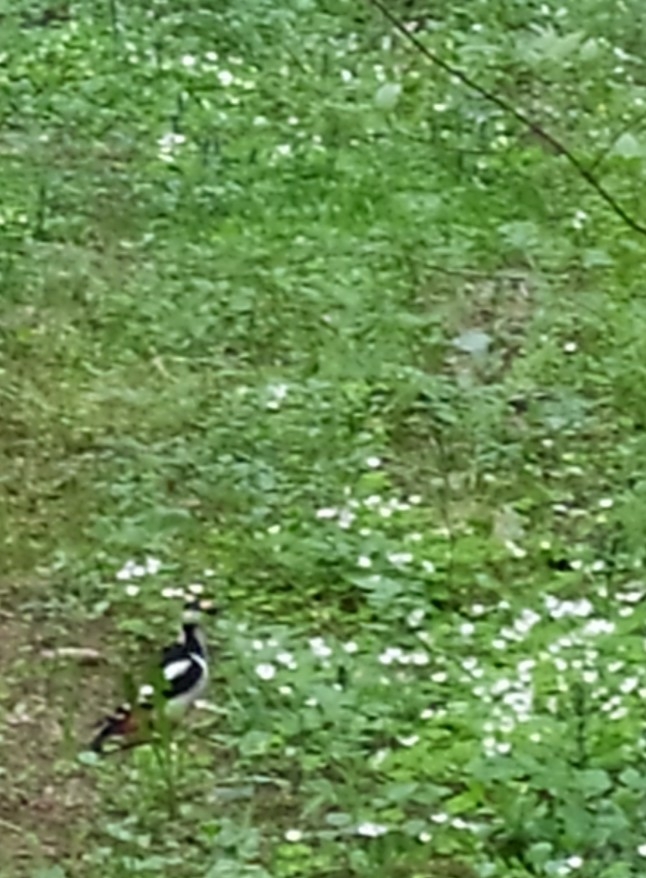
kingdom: Animalia
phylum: Chordata
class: Aves
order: Piciformes
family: Picidae
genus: Dendrocopos
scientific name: Dendrocopos major
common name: Great spotted woodpecker
